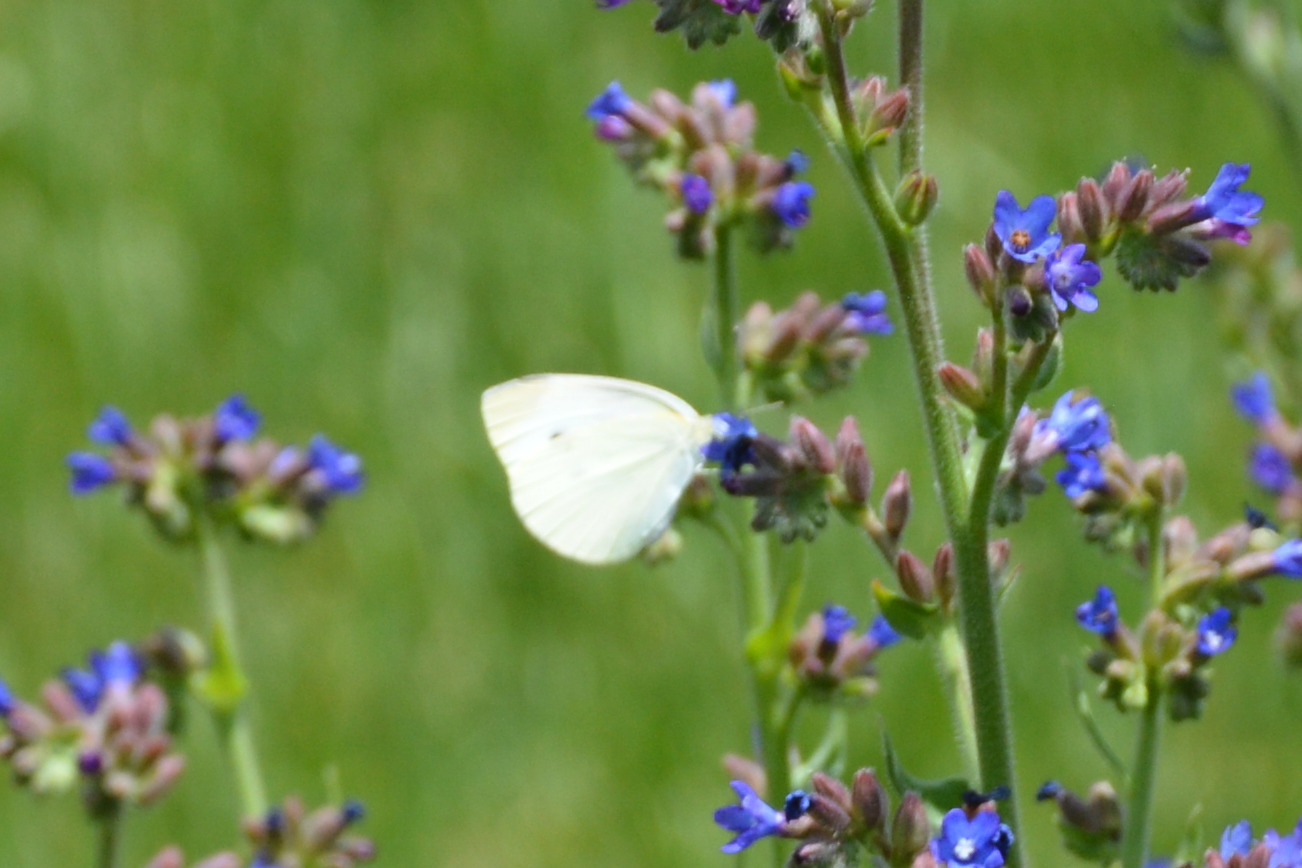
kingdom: Animalia
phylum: Arthropoda
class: Insecta
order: Lepidoptera
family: Pieridae
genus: Pieris
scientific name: Pieris rapae
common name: Small white
